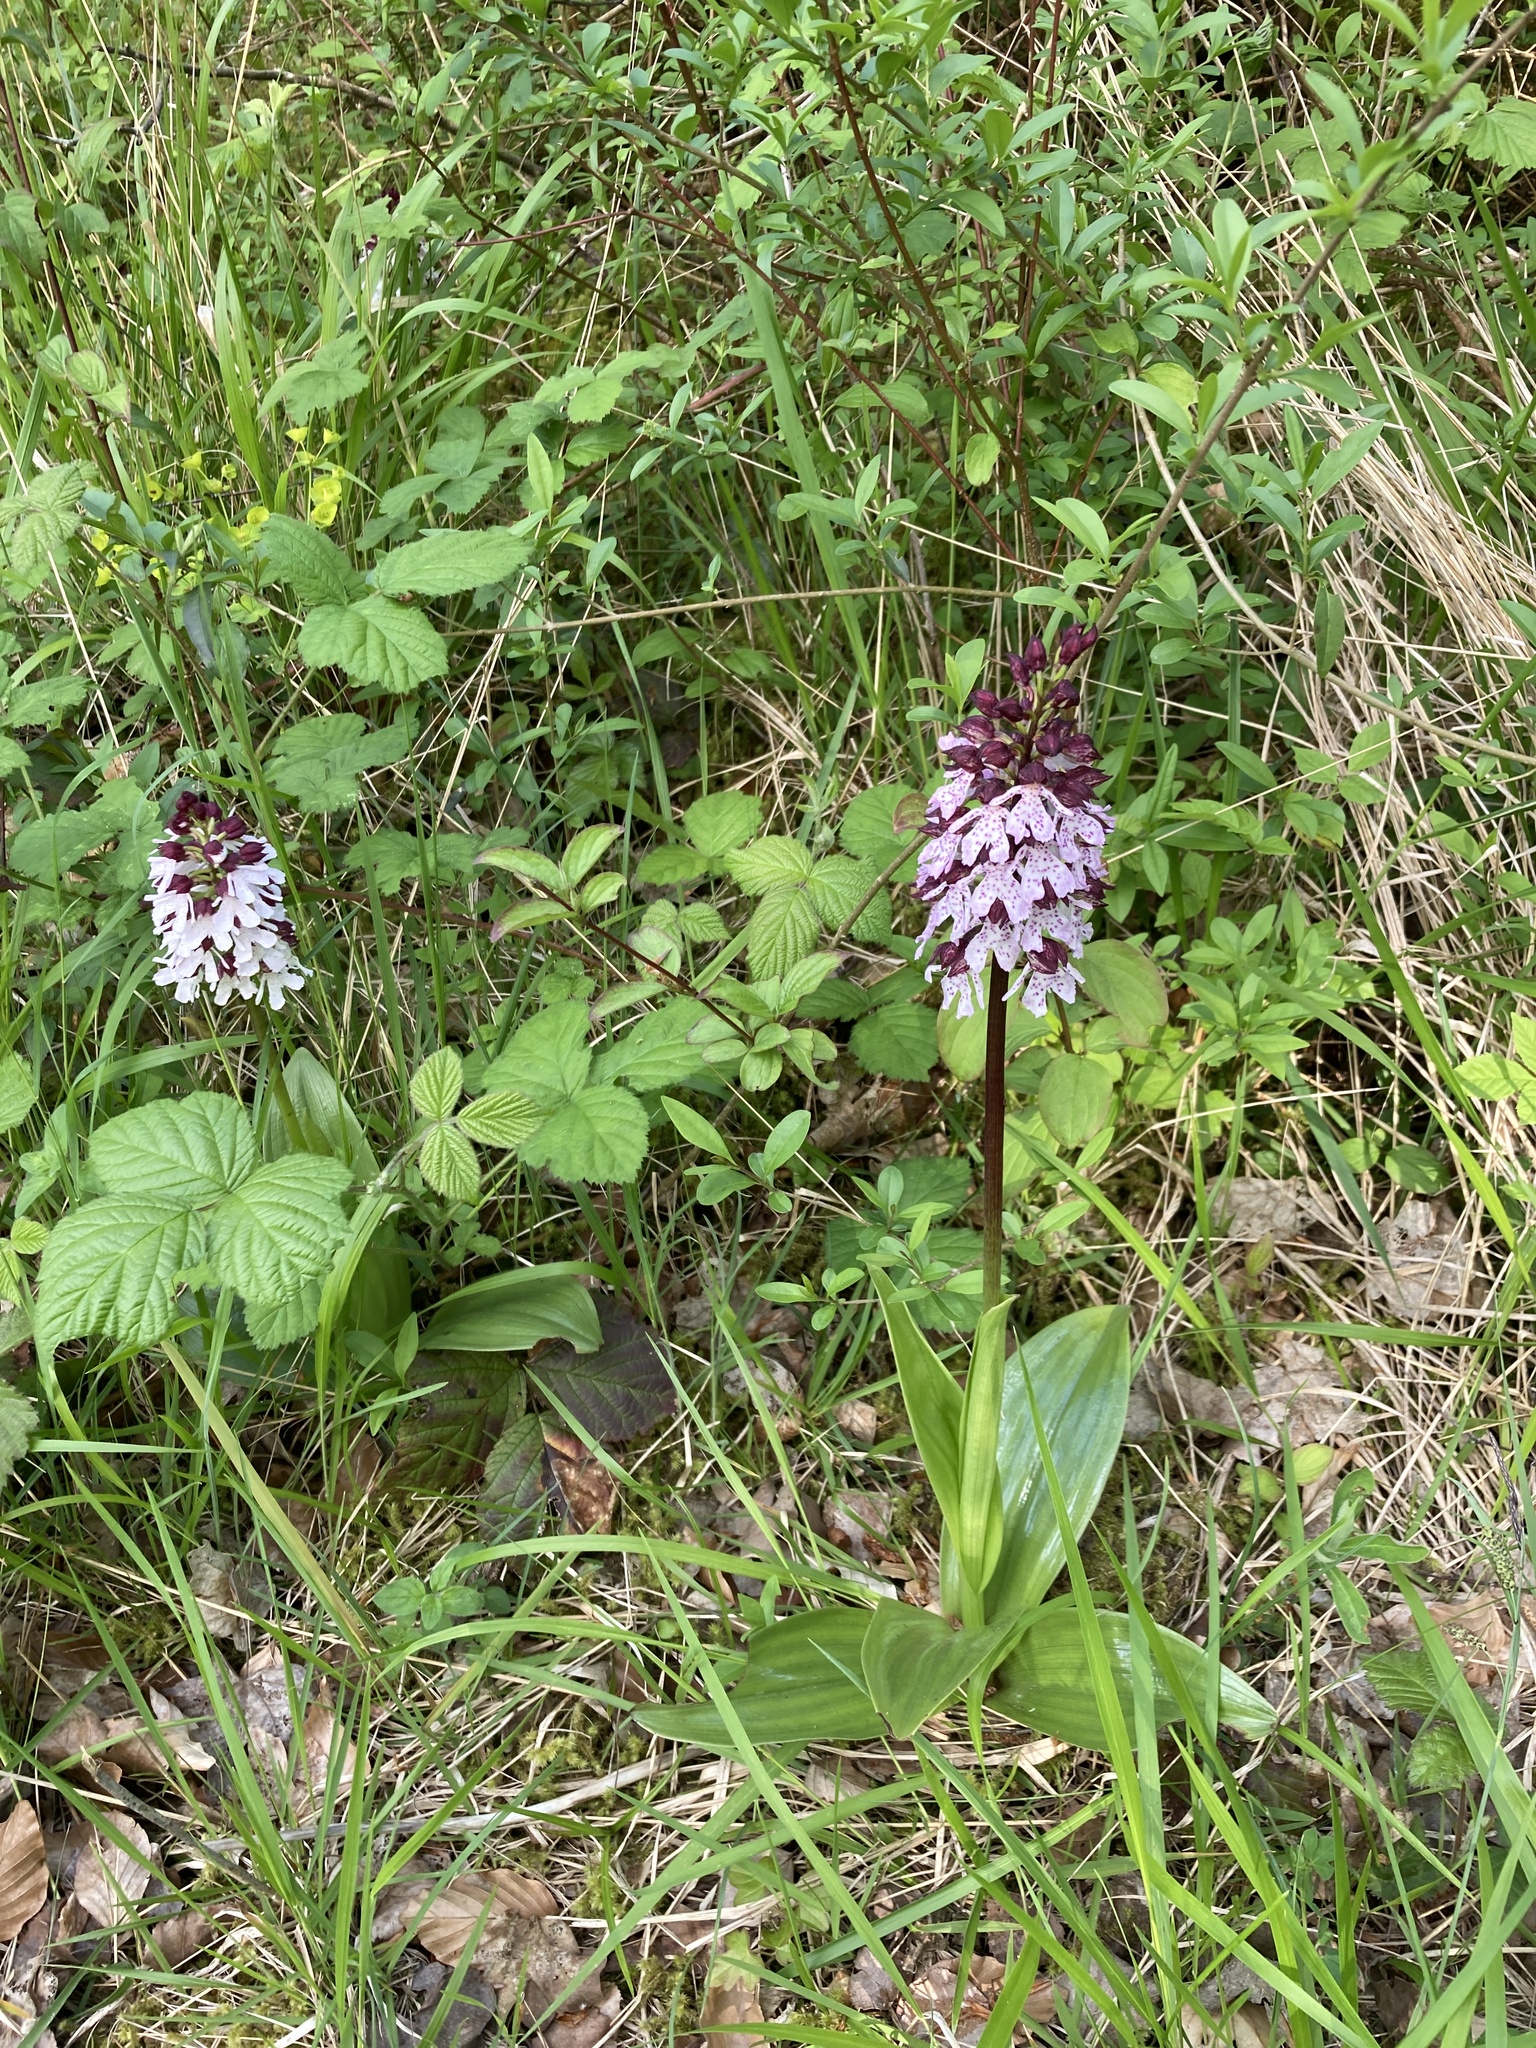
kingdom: Plantae
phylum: Tracheophyta
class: Liliopsida
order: Asparagales
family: Orchidaceae
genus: Orchis
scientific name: Orchis purpurea
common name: Lady orchid
